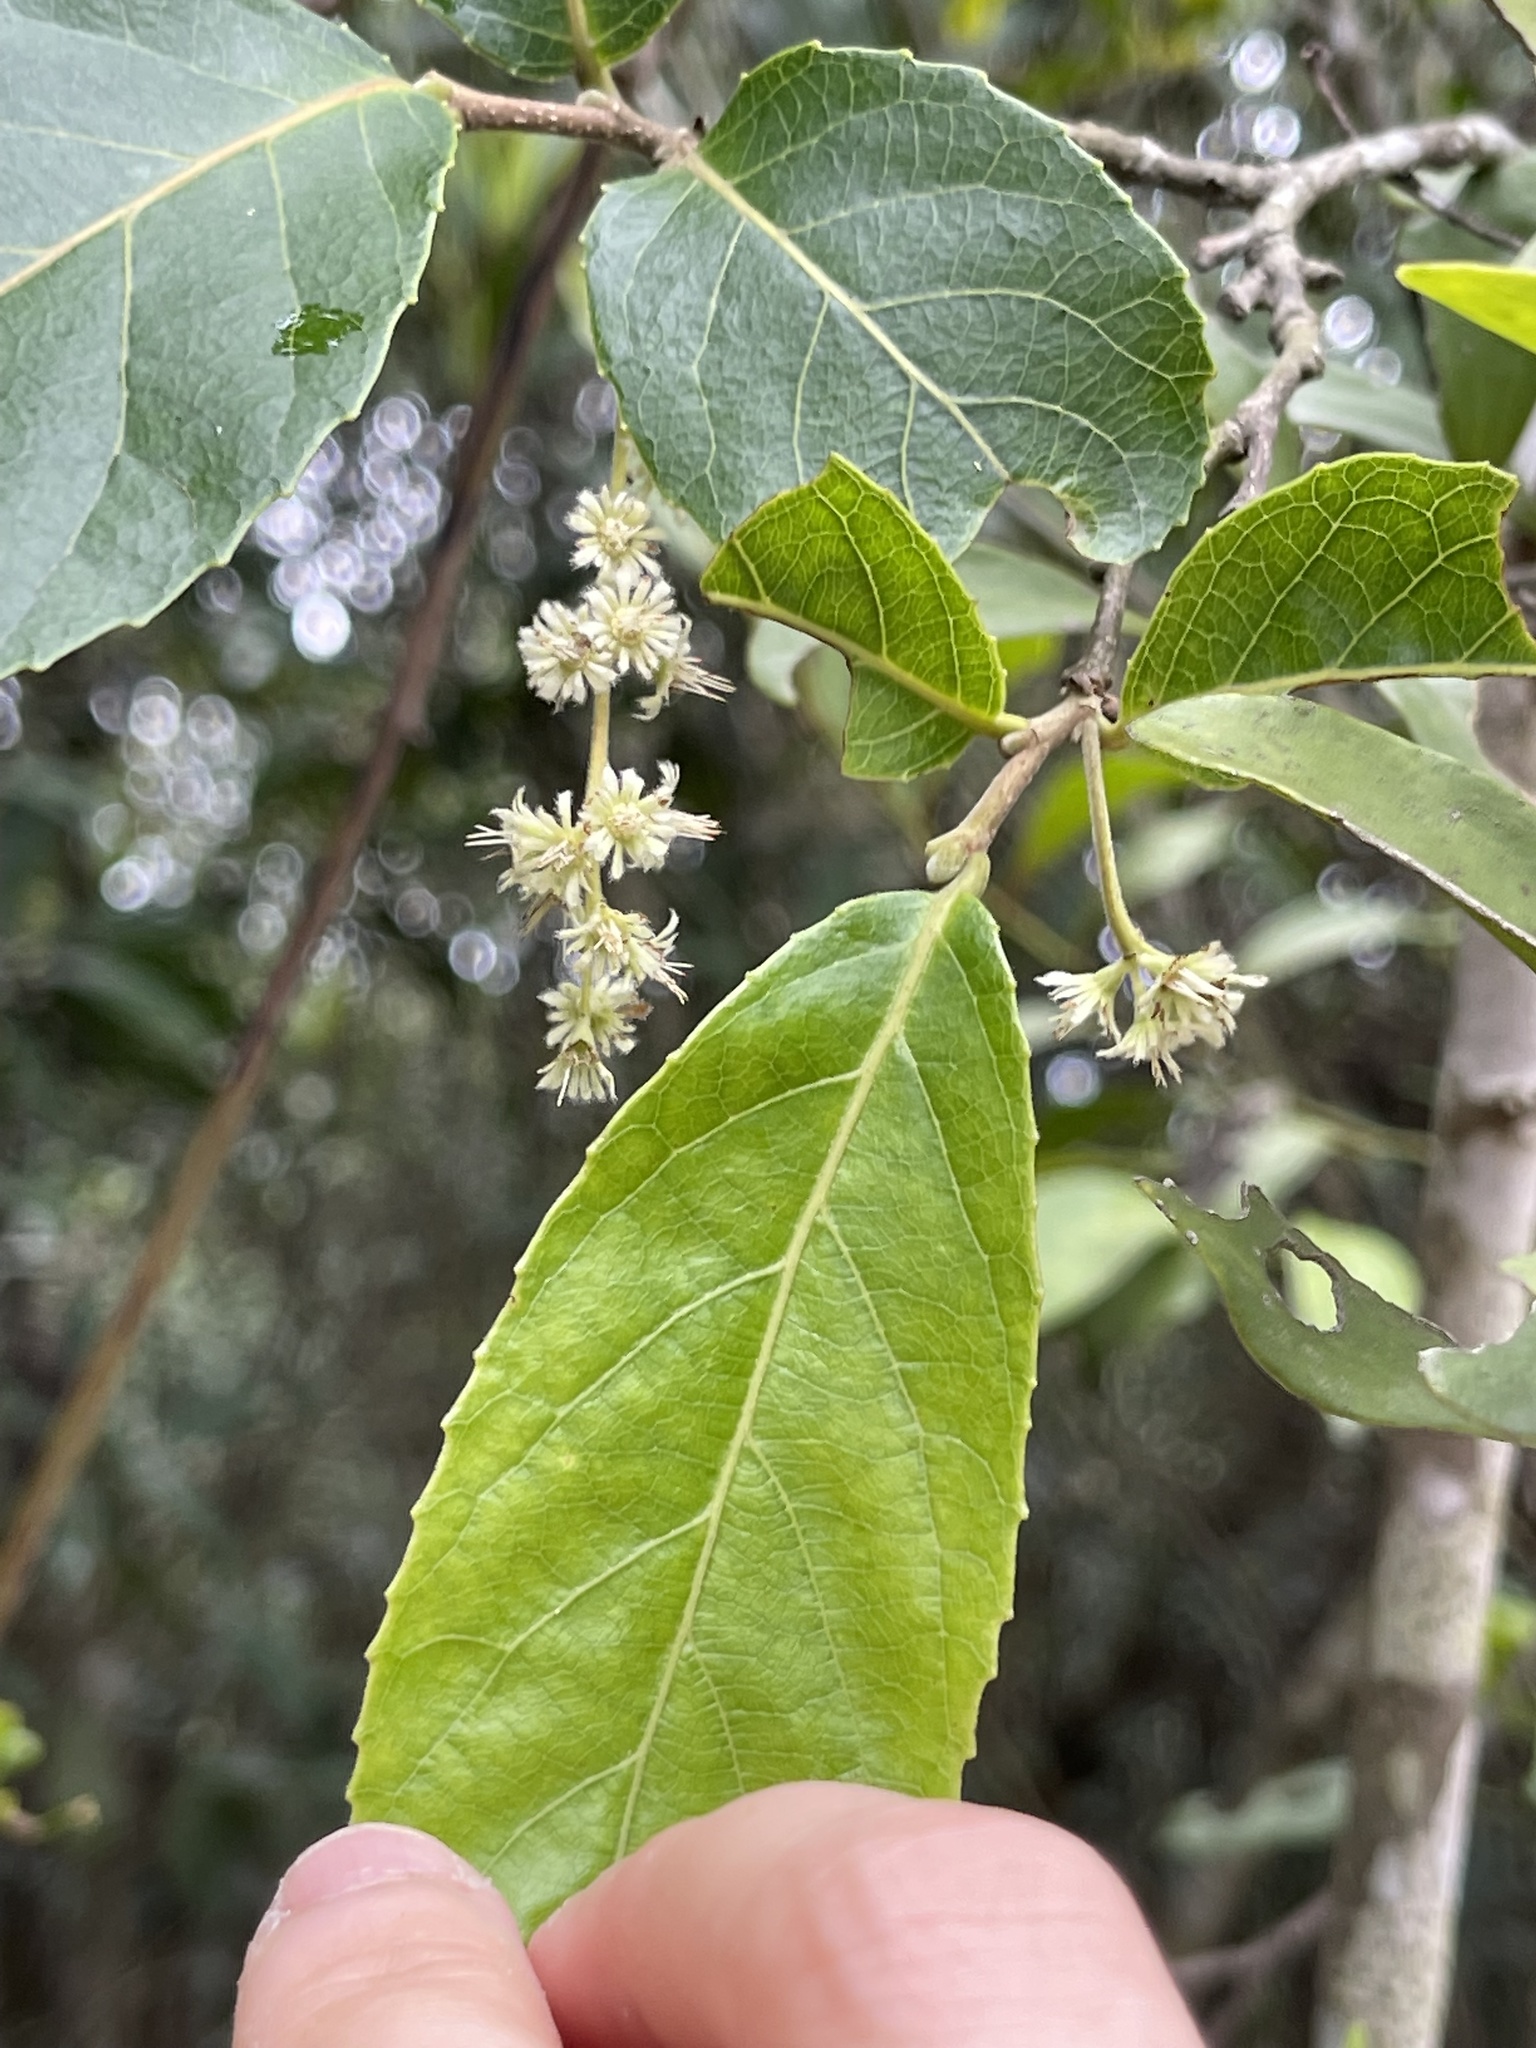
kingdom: Plantae
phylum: Tracheophyta
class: Magnoliopsida
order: Malpighiales
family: Salicaceae
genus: Homalium
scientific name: Homalium cochinchinensis
